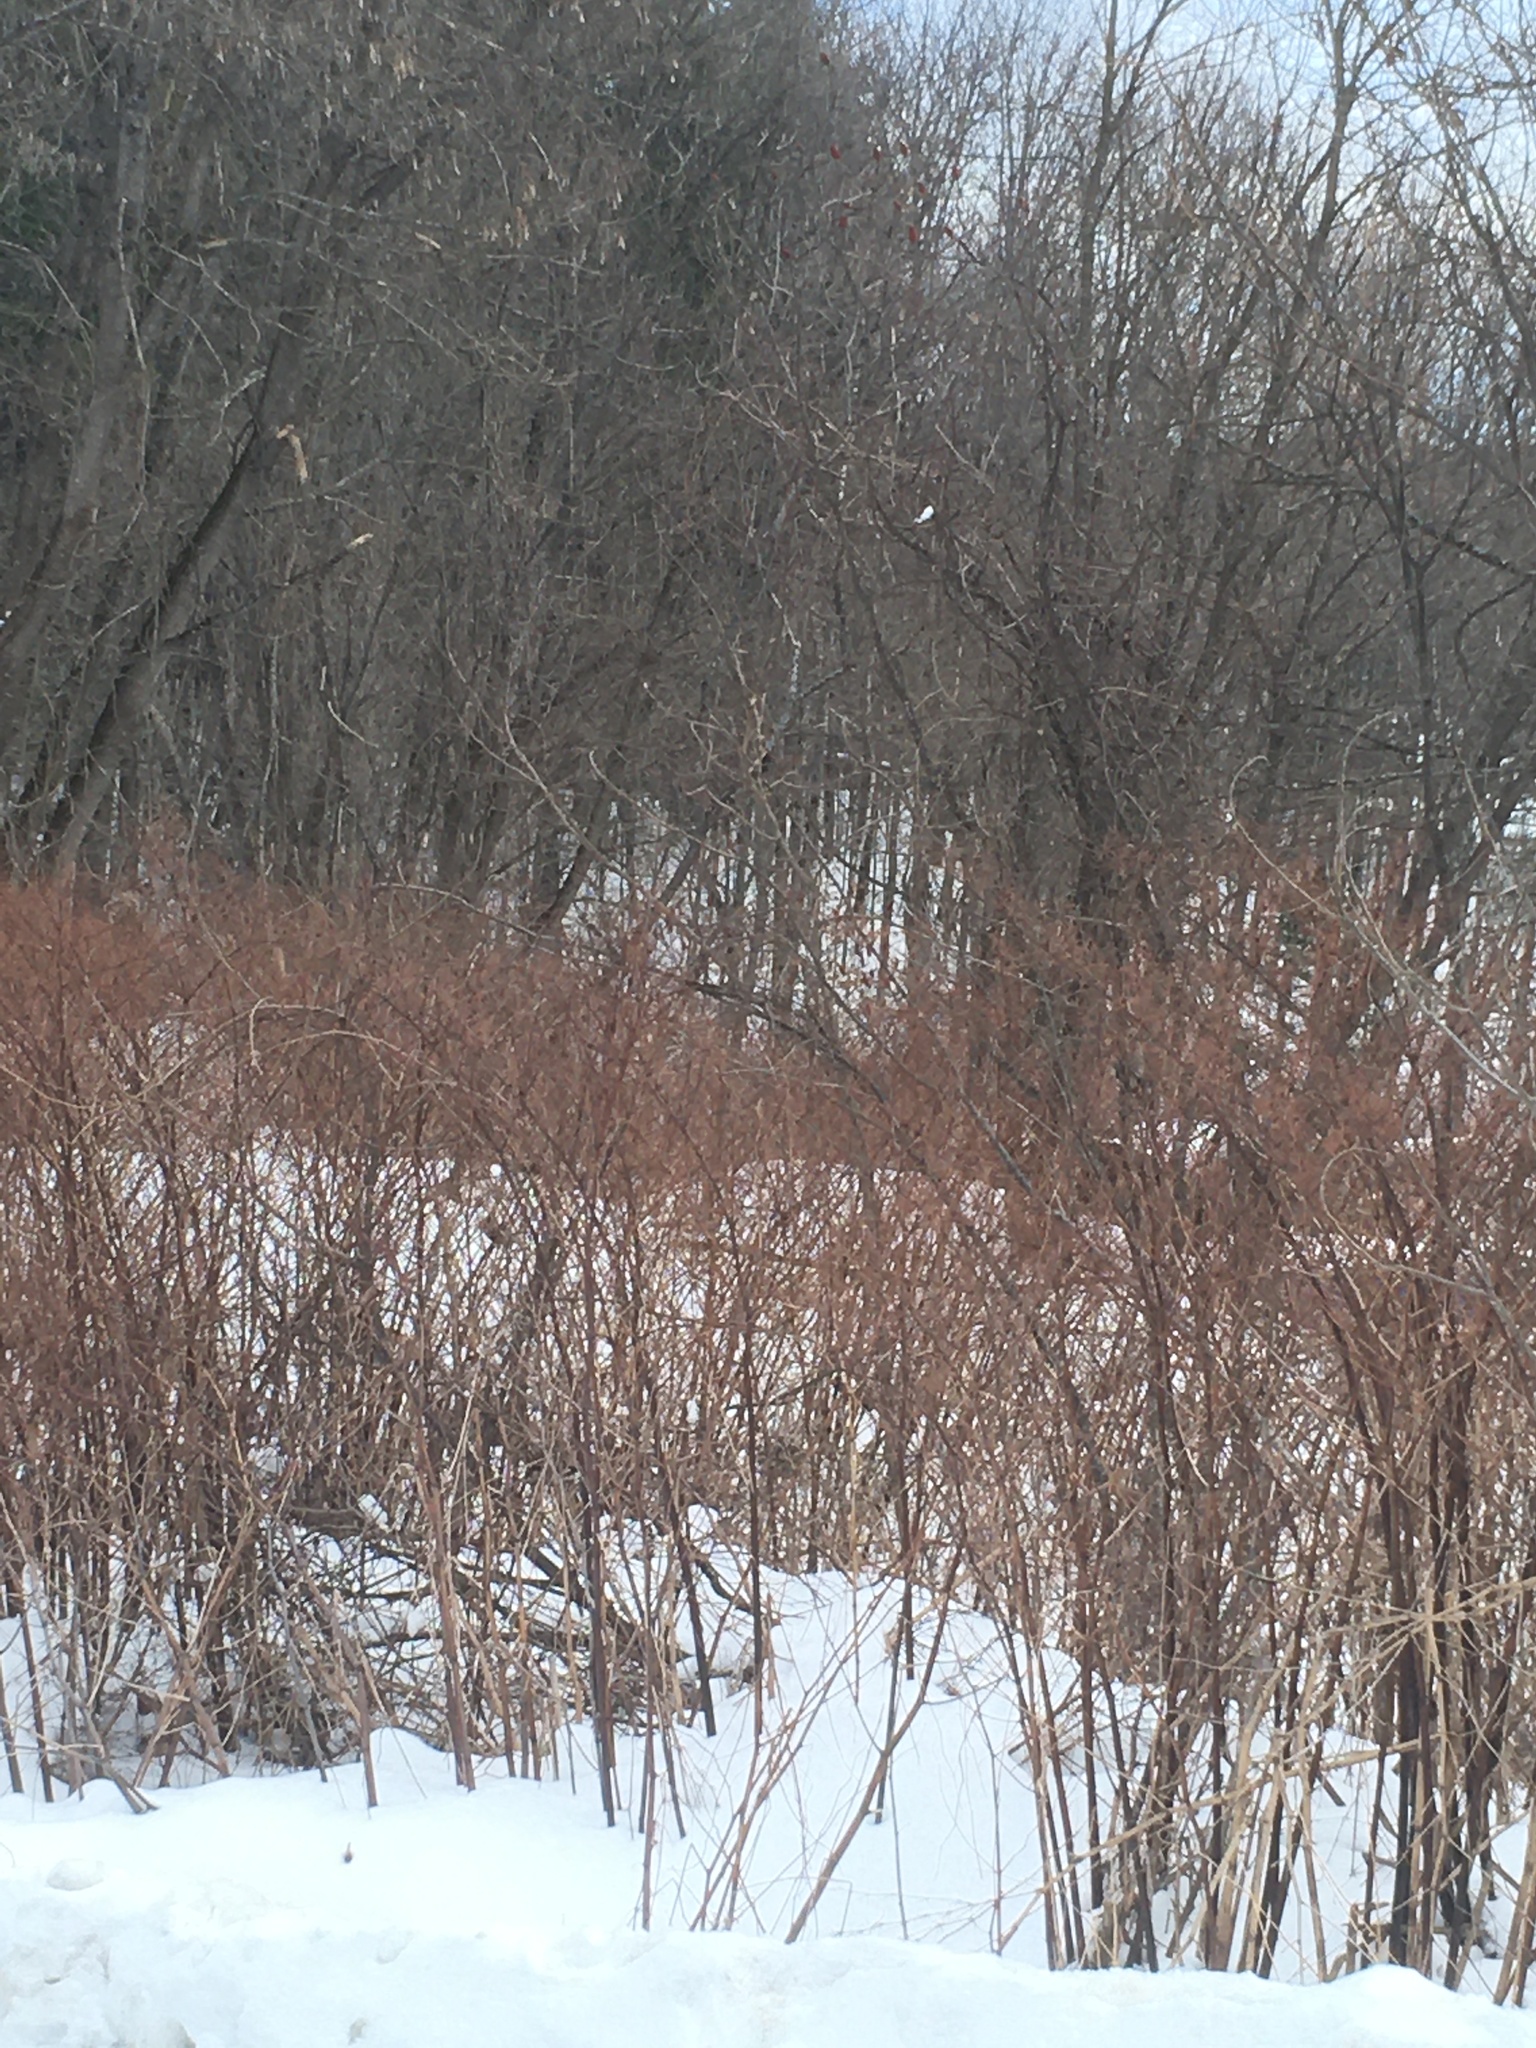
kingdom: Plantae
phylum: Tracheophyta
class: Magnoliopsida
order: Caryophyllales
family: Polygonaceae
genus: Reynoutria
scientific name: Reynoutria japonica
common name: Japanese knotweed
